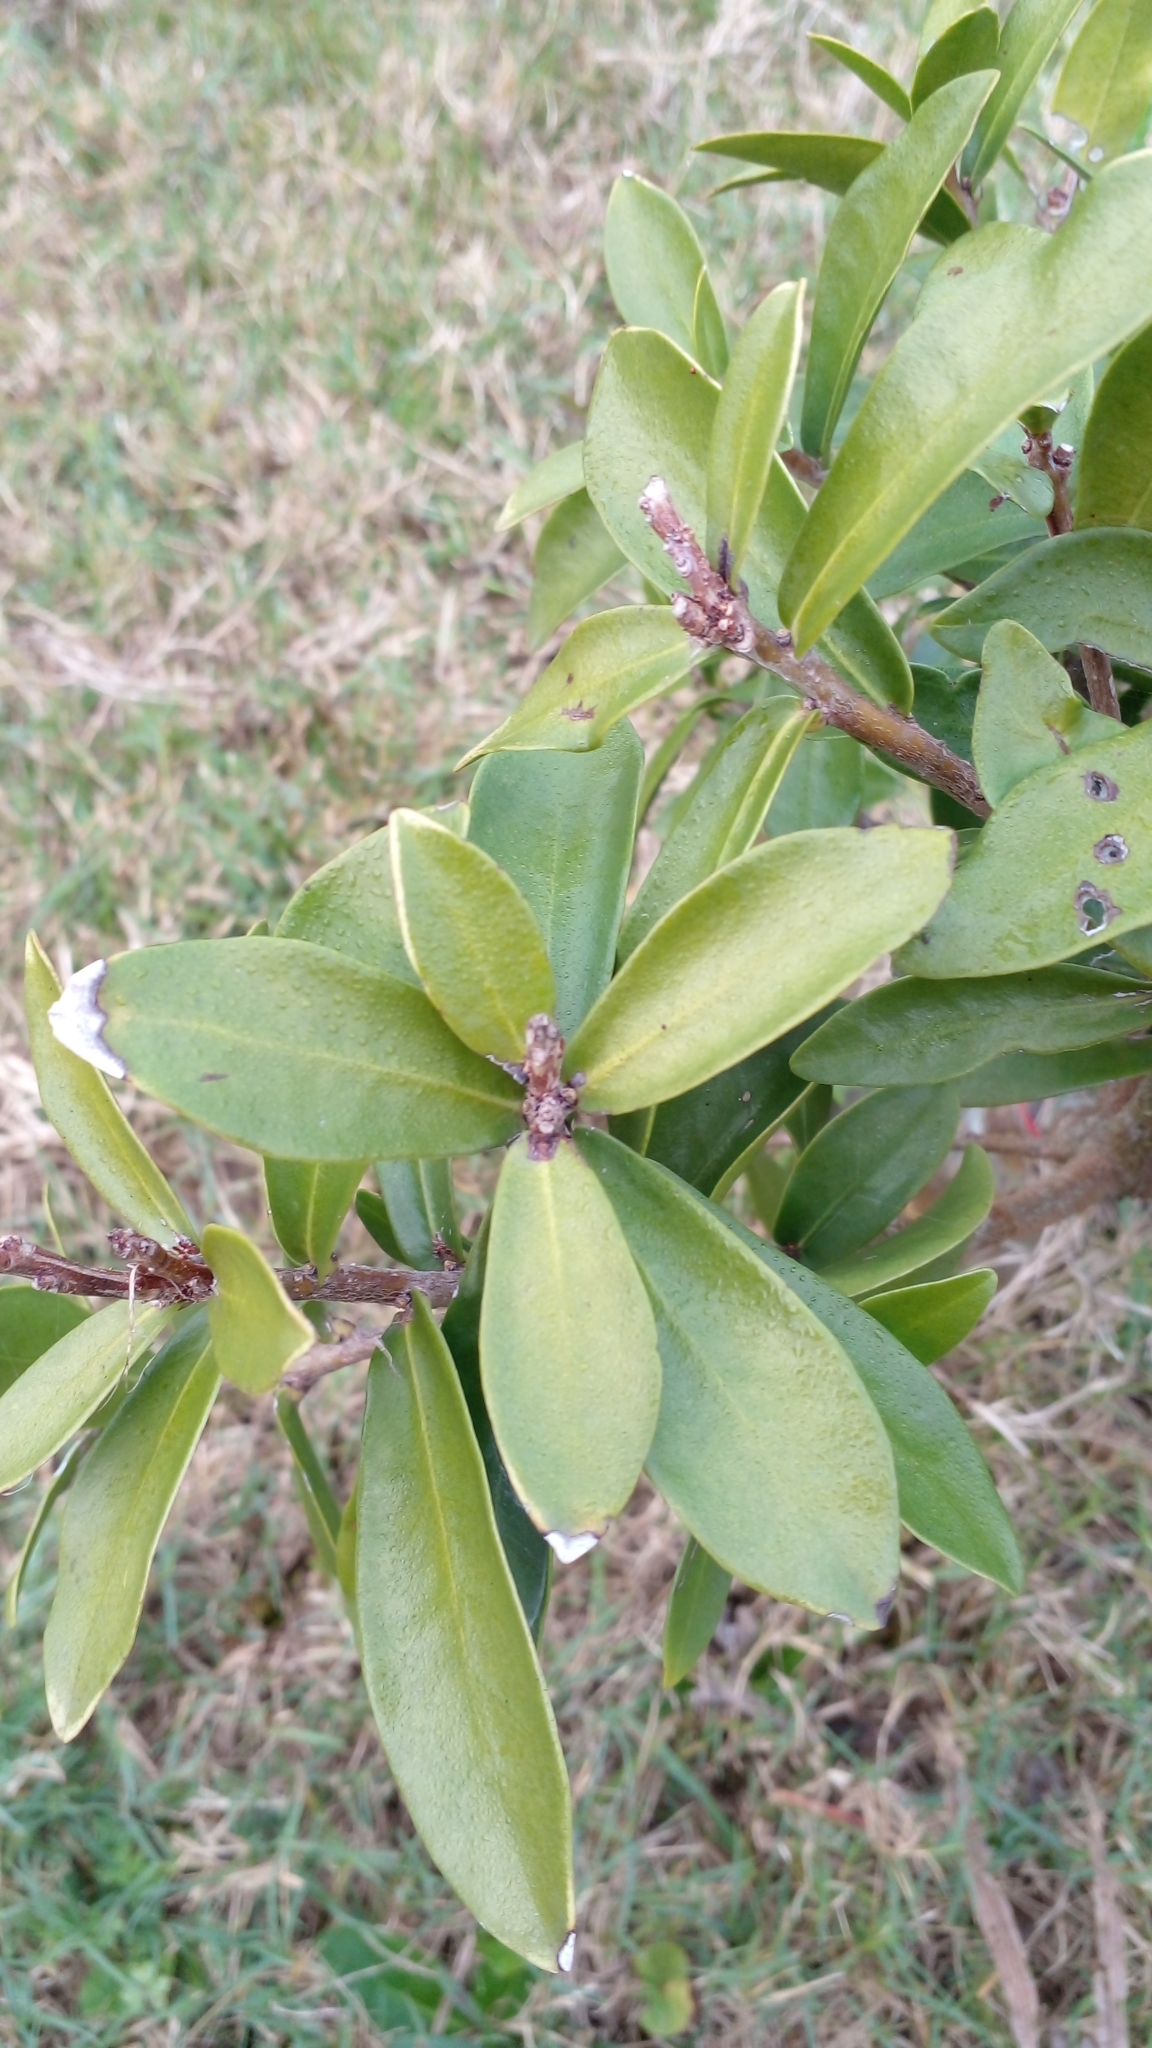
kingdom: Plantae
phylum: Tracheophyta
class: Magnoliopsida
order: Malvales
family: Thymelaeaceae
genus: Daphnopsis
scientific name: Daphnopsis racemosa
